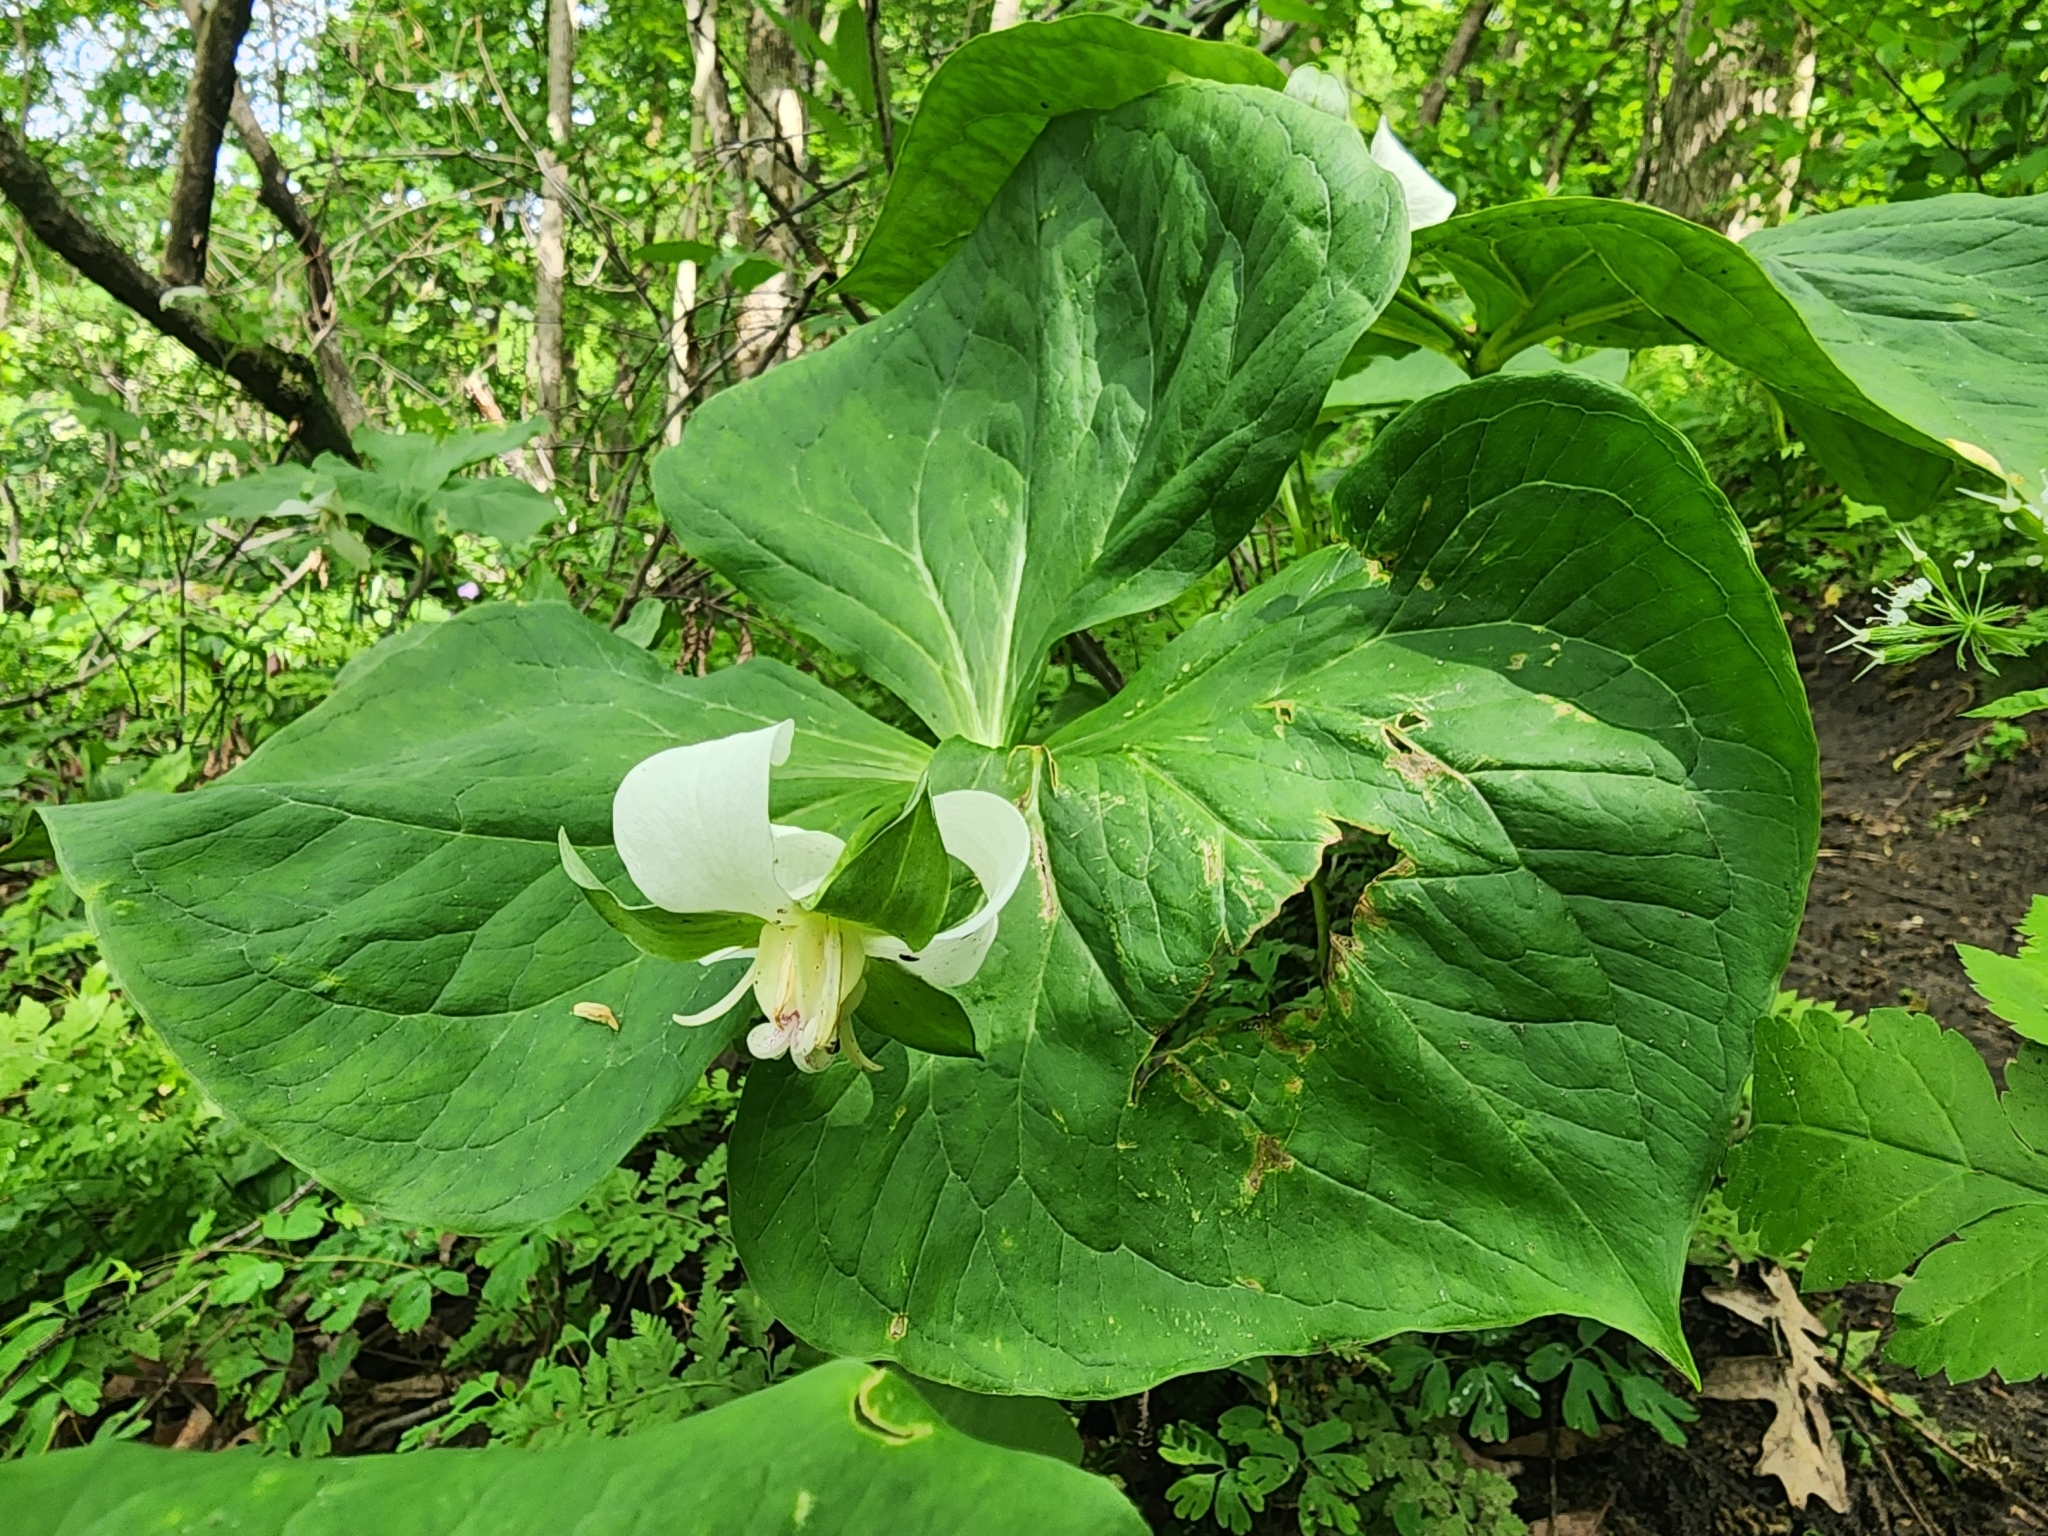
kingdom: Plantae
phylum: Tracheophyta
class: Liliopsida
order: Liliales
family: Melanthiaceae
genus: Trillium
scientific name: Trillium flexipes
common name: Drooping trillium
